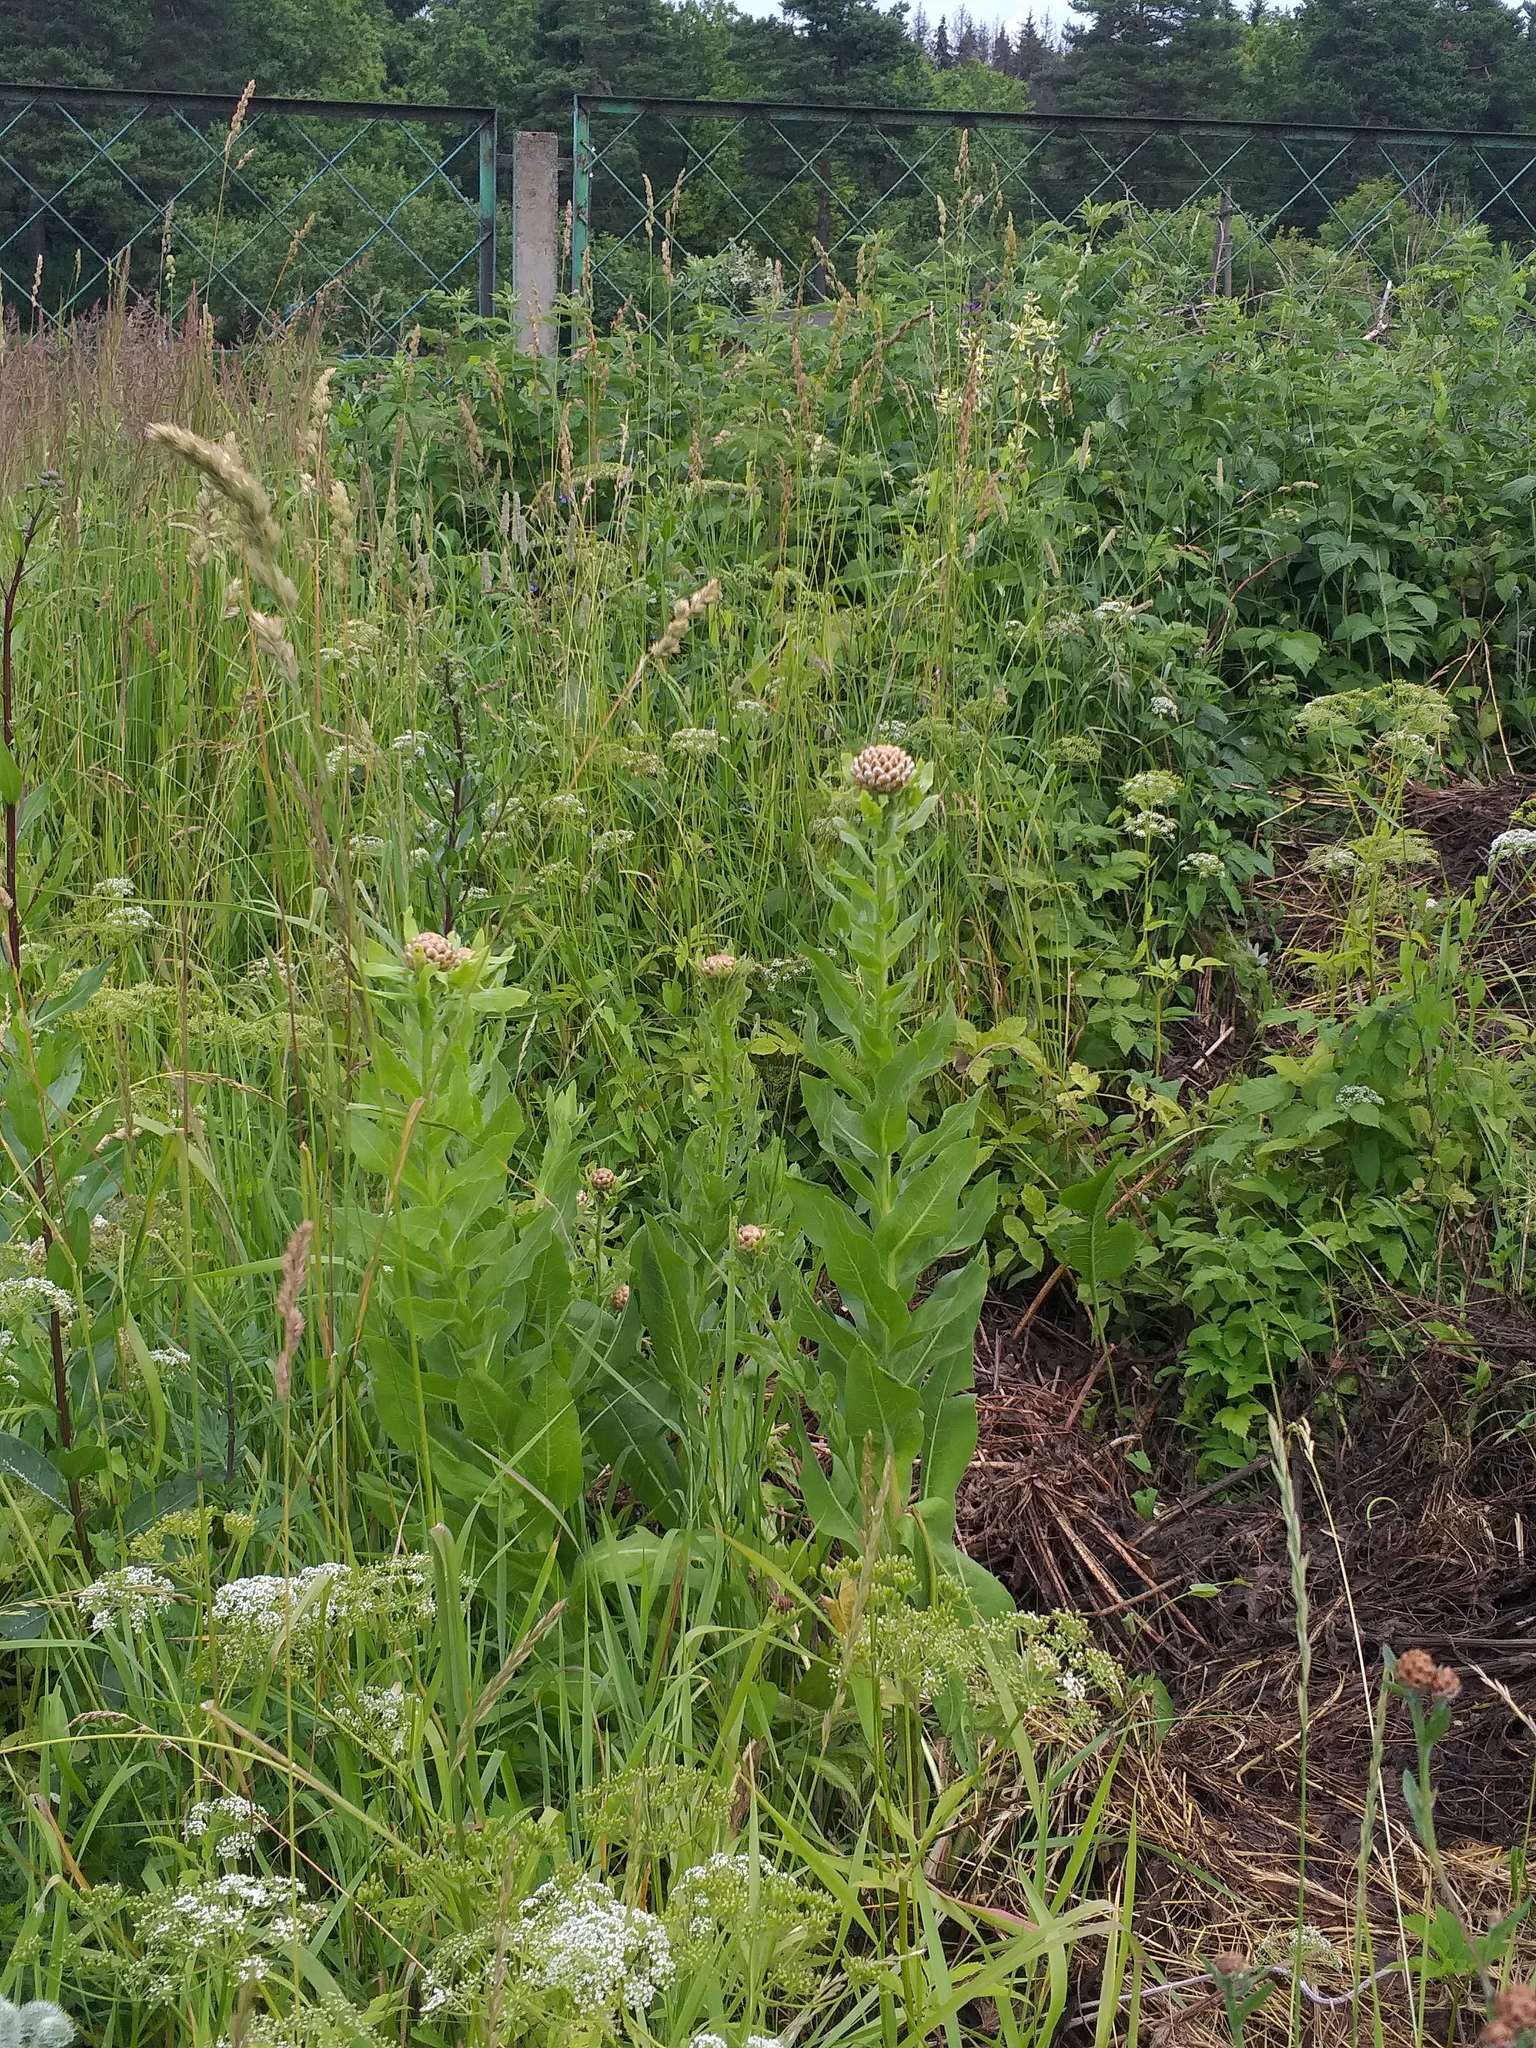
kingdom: Plantae
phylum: Tracheophyta
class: Magnoliopsida
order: Asterales
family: Asteraceae
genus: Centaurea
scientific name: Centaurea macrocephala
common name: Big-head knapweed
